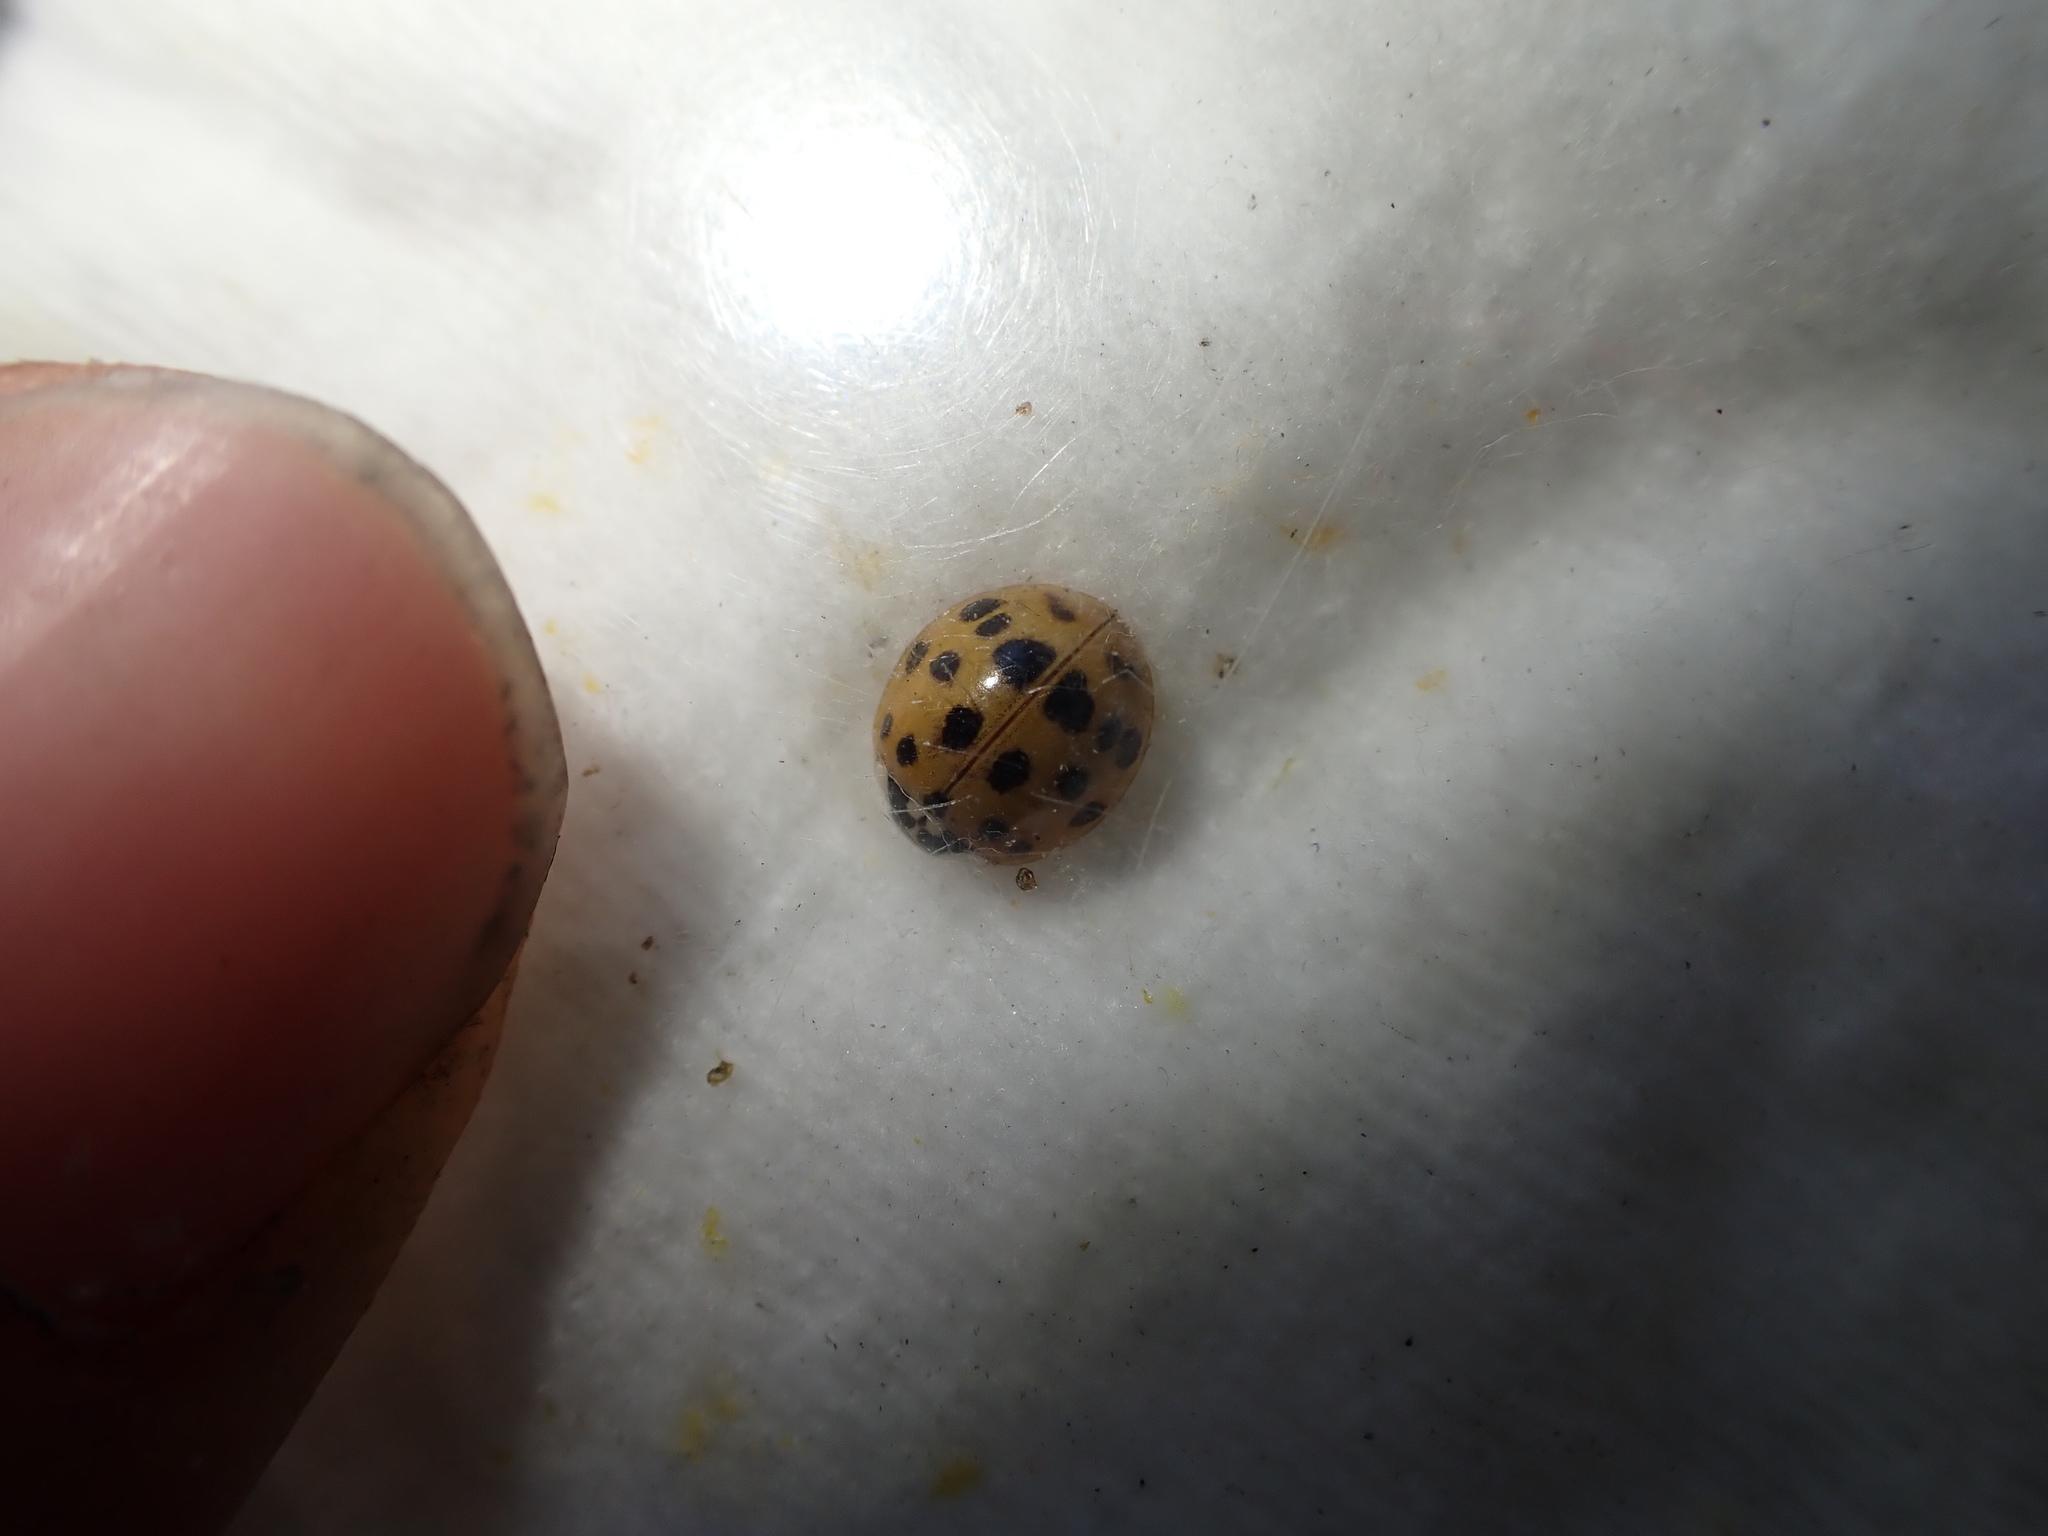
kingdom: Animalia
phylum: Arthropoda
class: Insecta
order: Coleoptera
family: Coccinellidae
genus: Harmonia
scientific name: Harmonia axyridis
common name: Harlequin ladybird
